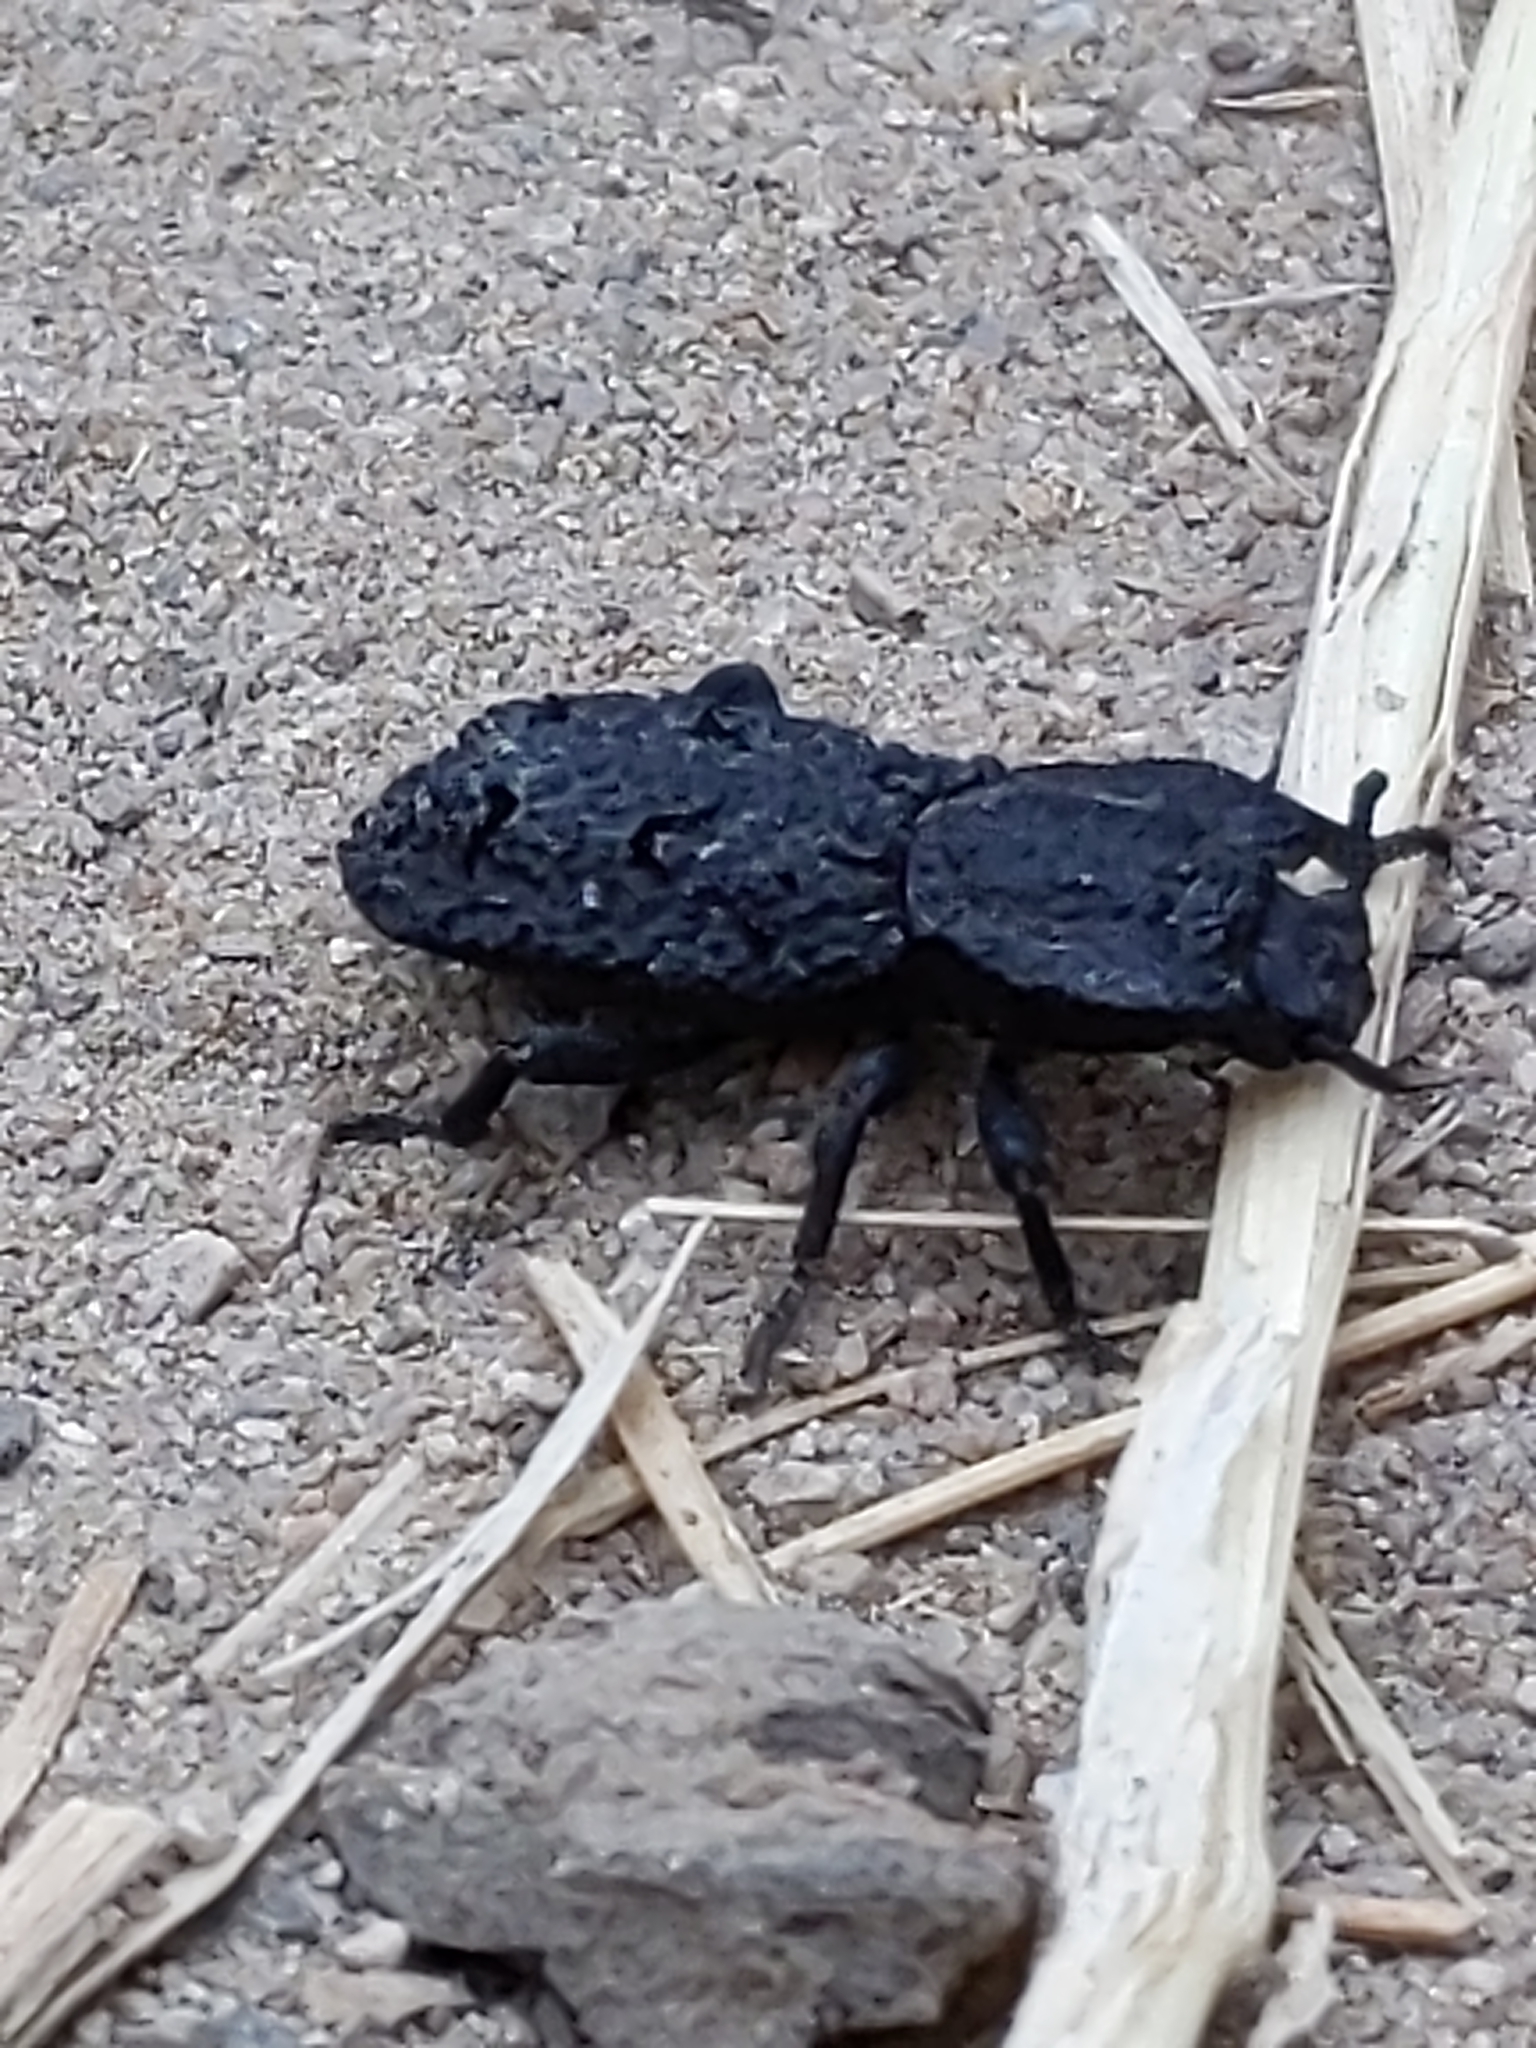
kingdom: Animalia
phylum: Arthropoda
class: Insecta
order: Coleoptera
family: Zopheridae
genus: Phloeodes
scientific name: Phloeodes diabolicus
